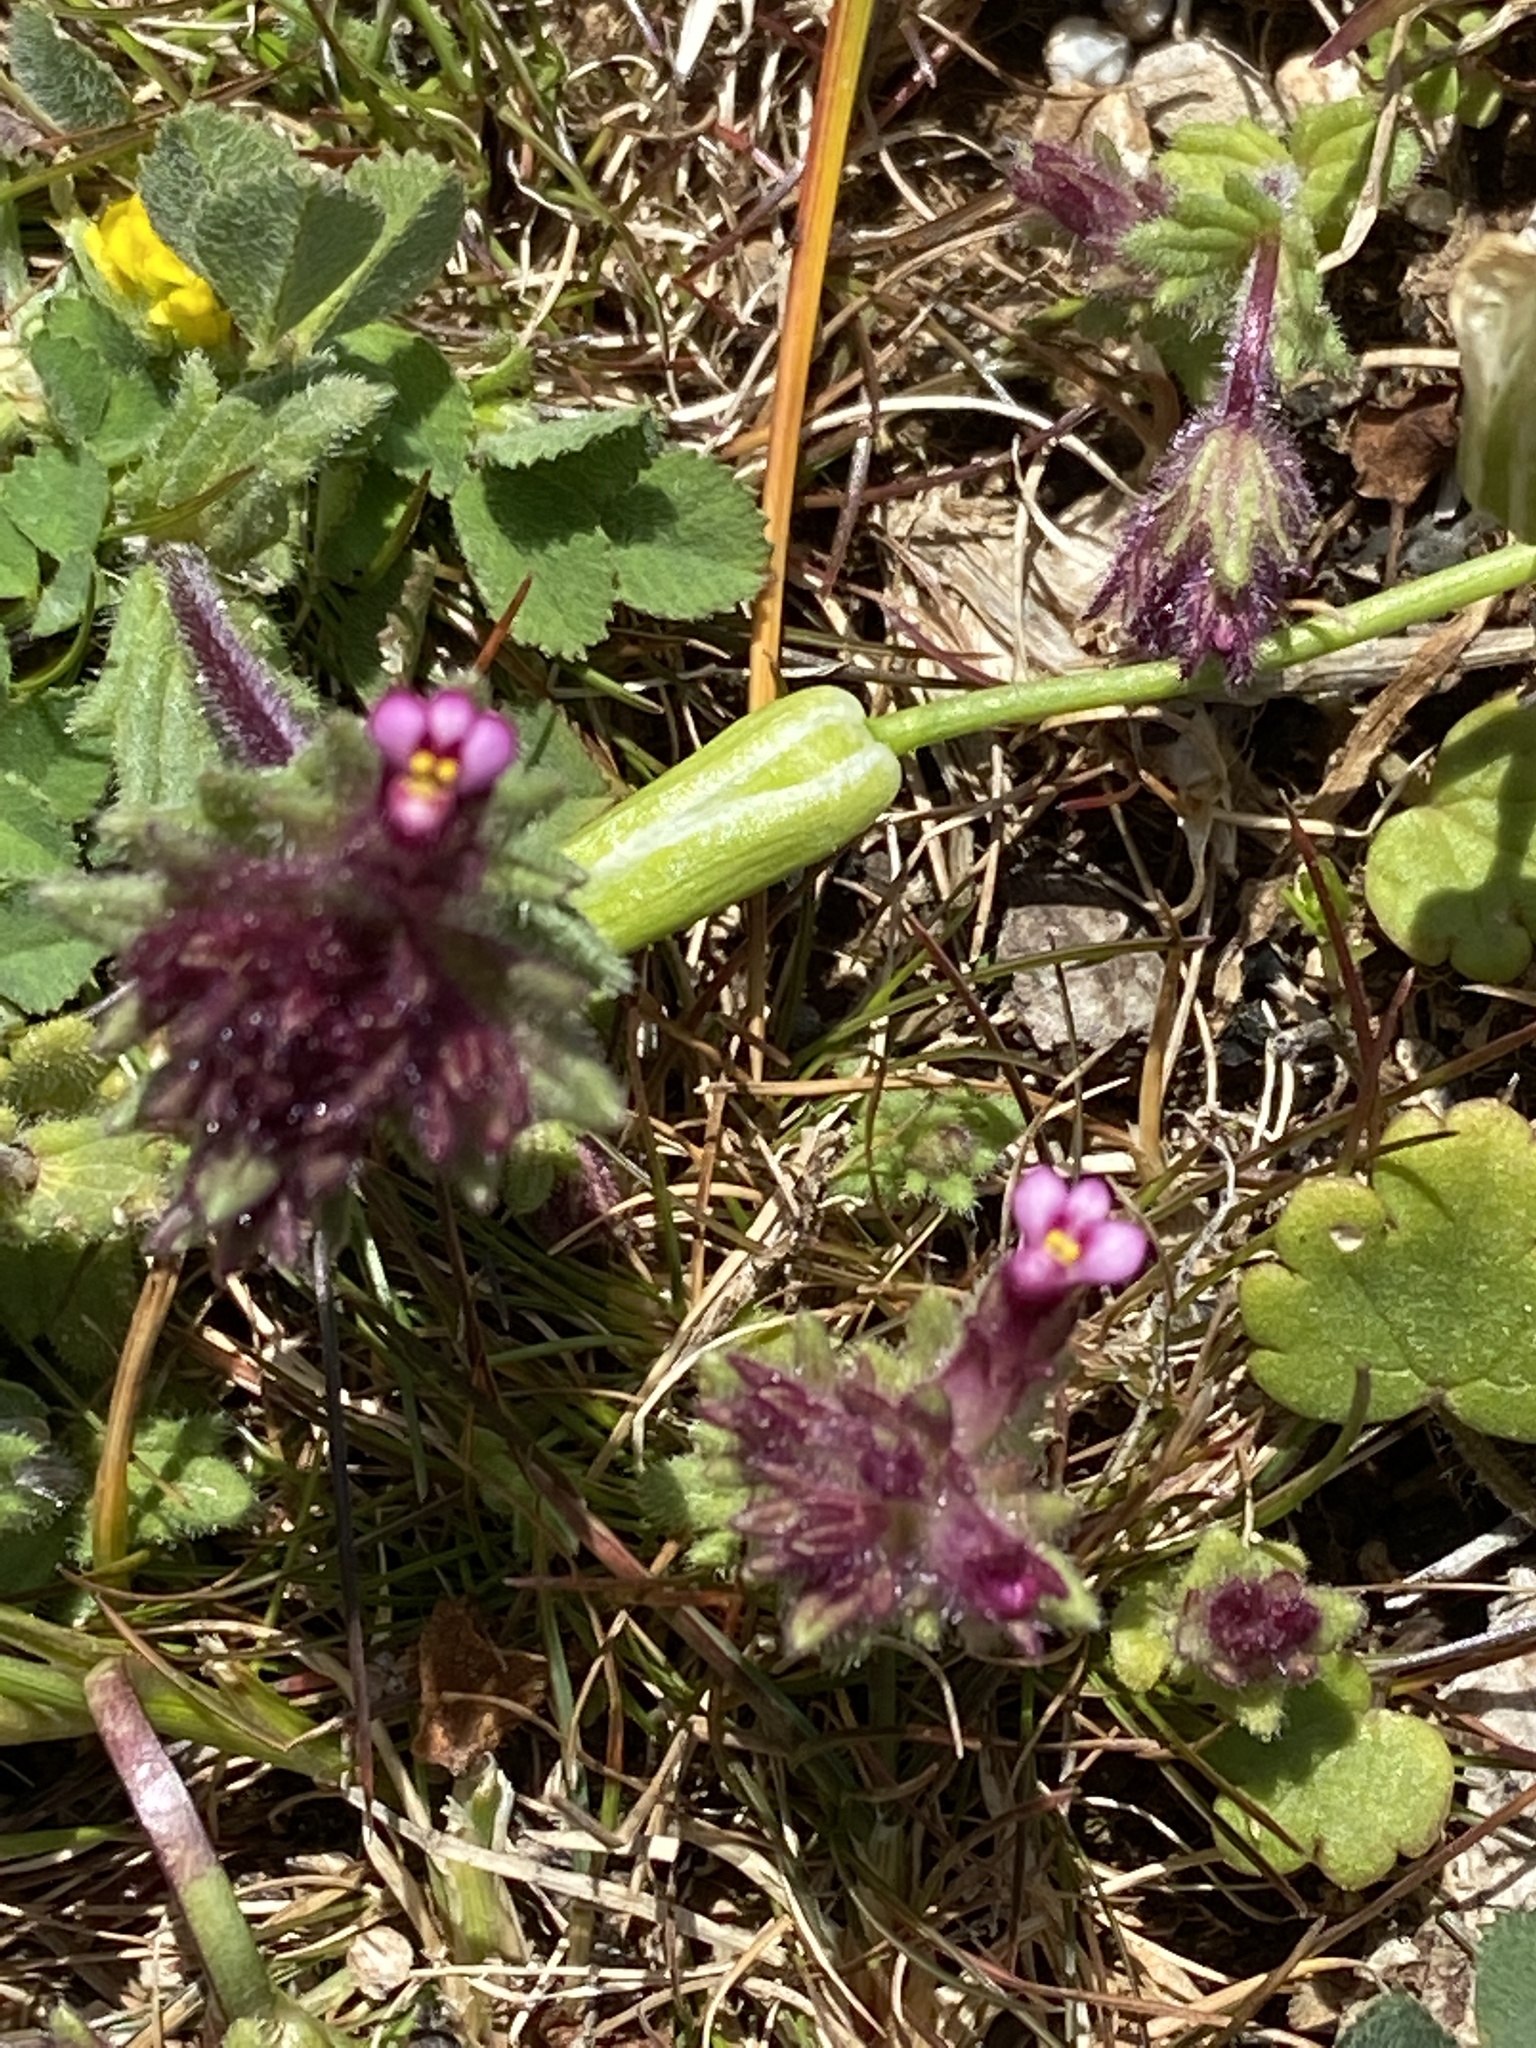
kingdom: Plantae
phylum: Tracheophyta
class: Magnoliopsida
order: Lamiales
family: Orobanchaceae
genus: Parentucellia
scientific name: Parentucellia latifolia
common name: Broadleaf glandweed
